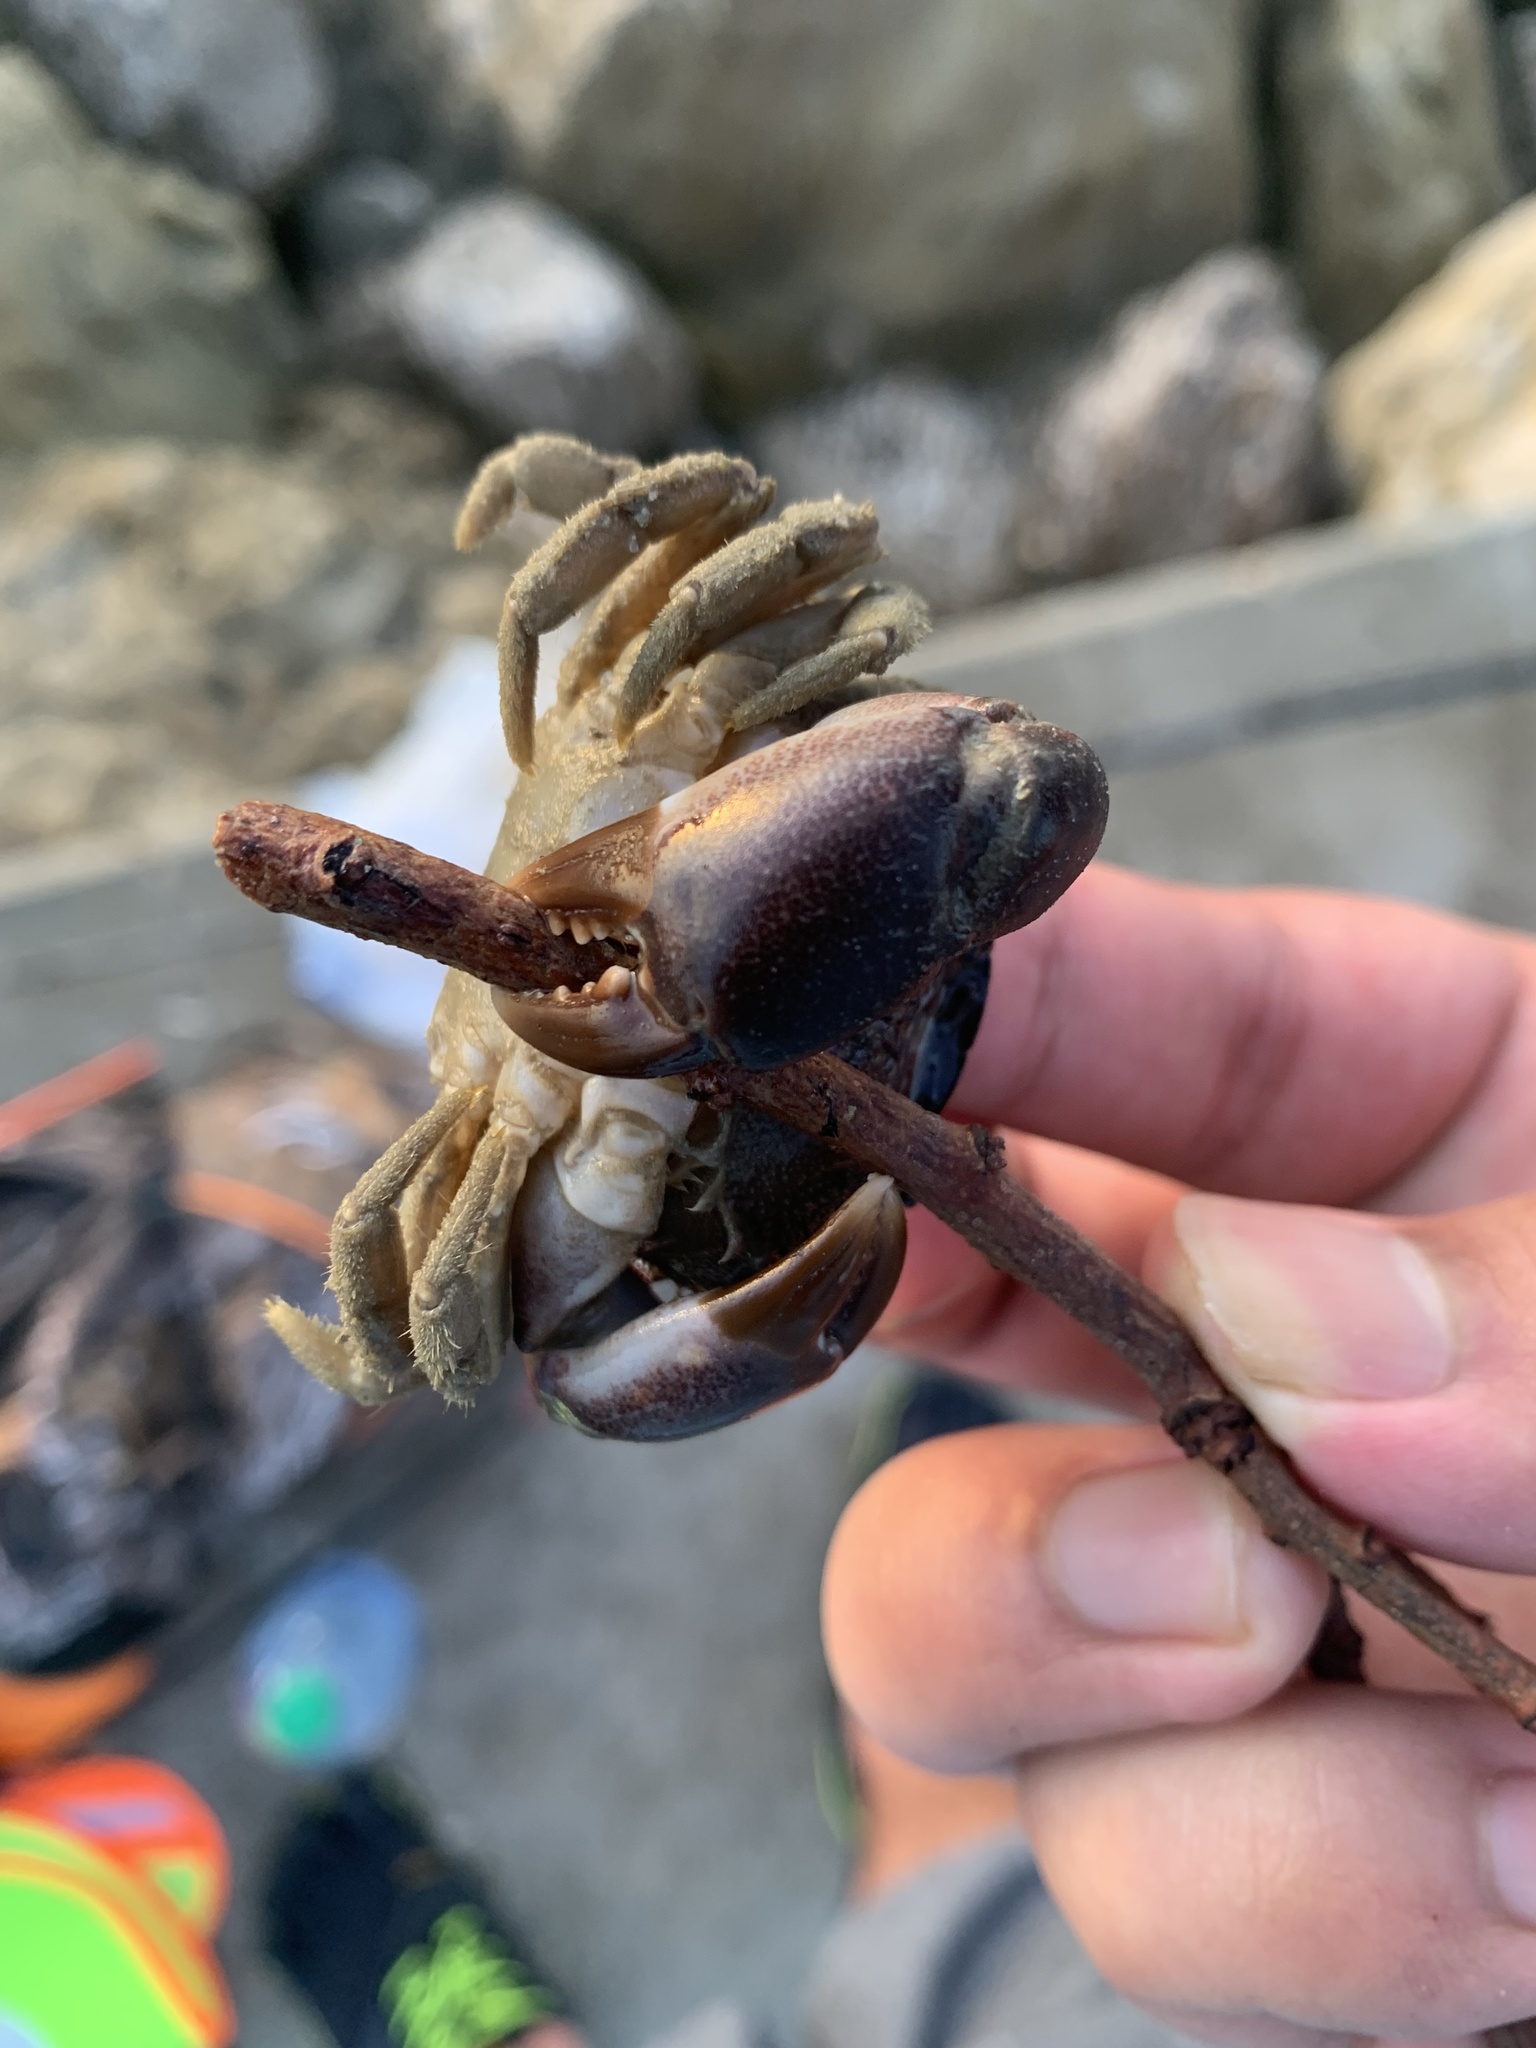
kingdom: Animalia
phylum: Arthropoda
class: Malacostraca
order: Decapoda
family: Menippidae
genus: Menippe
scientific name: Menippe adina
